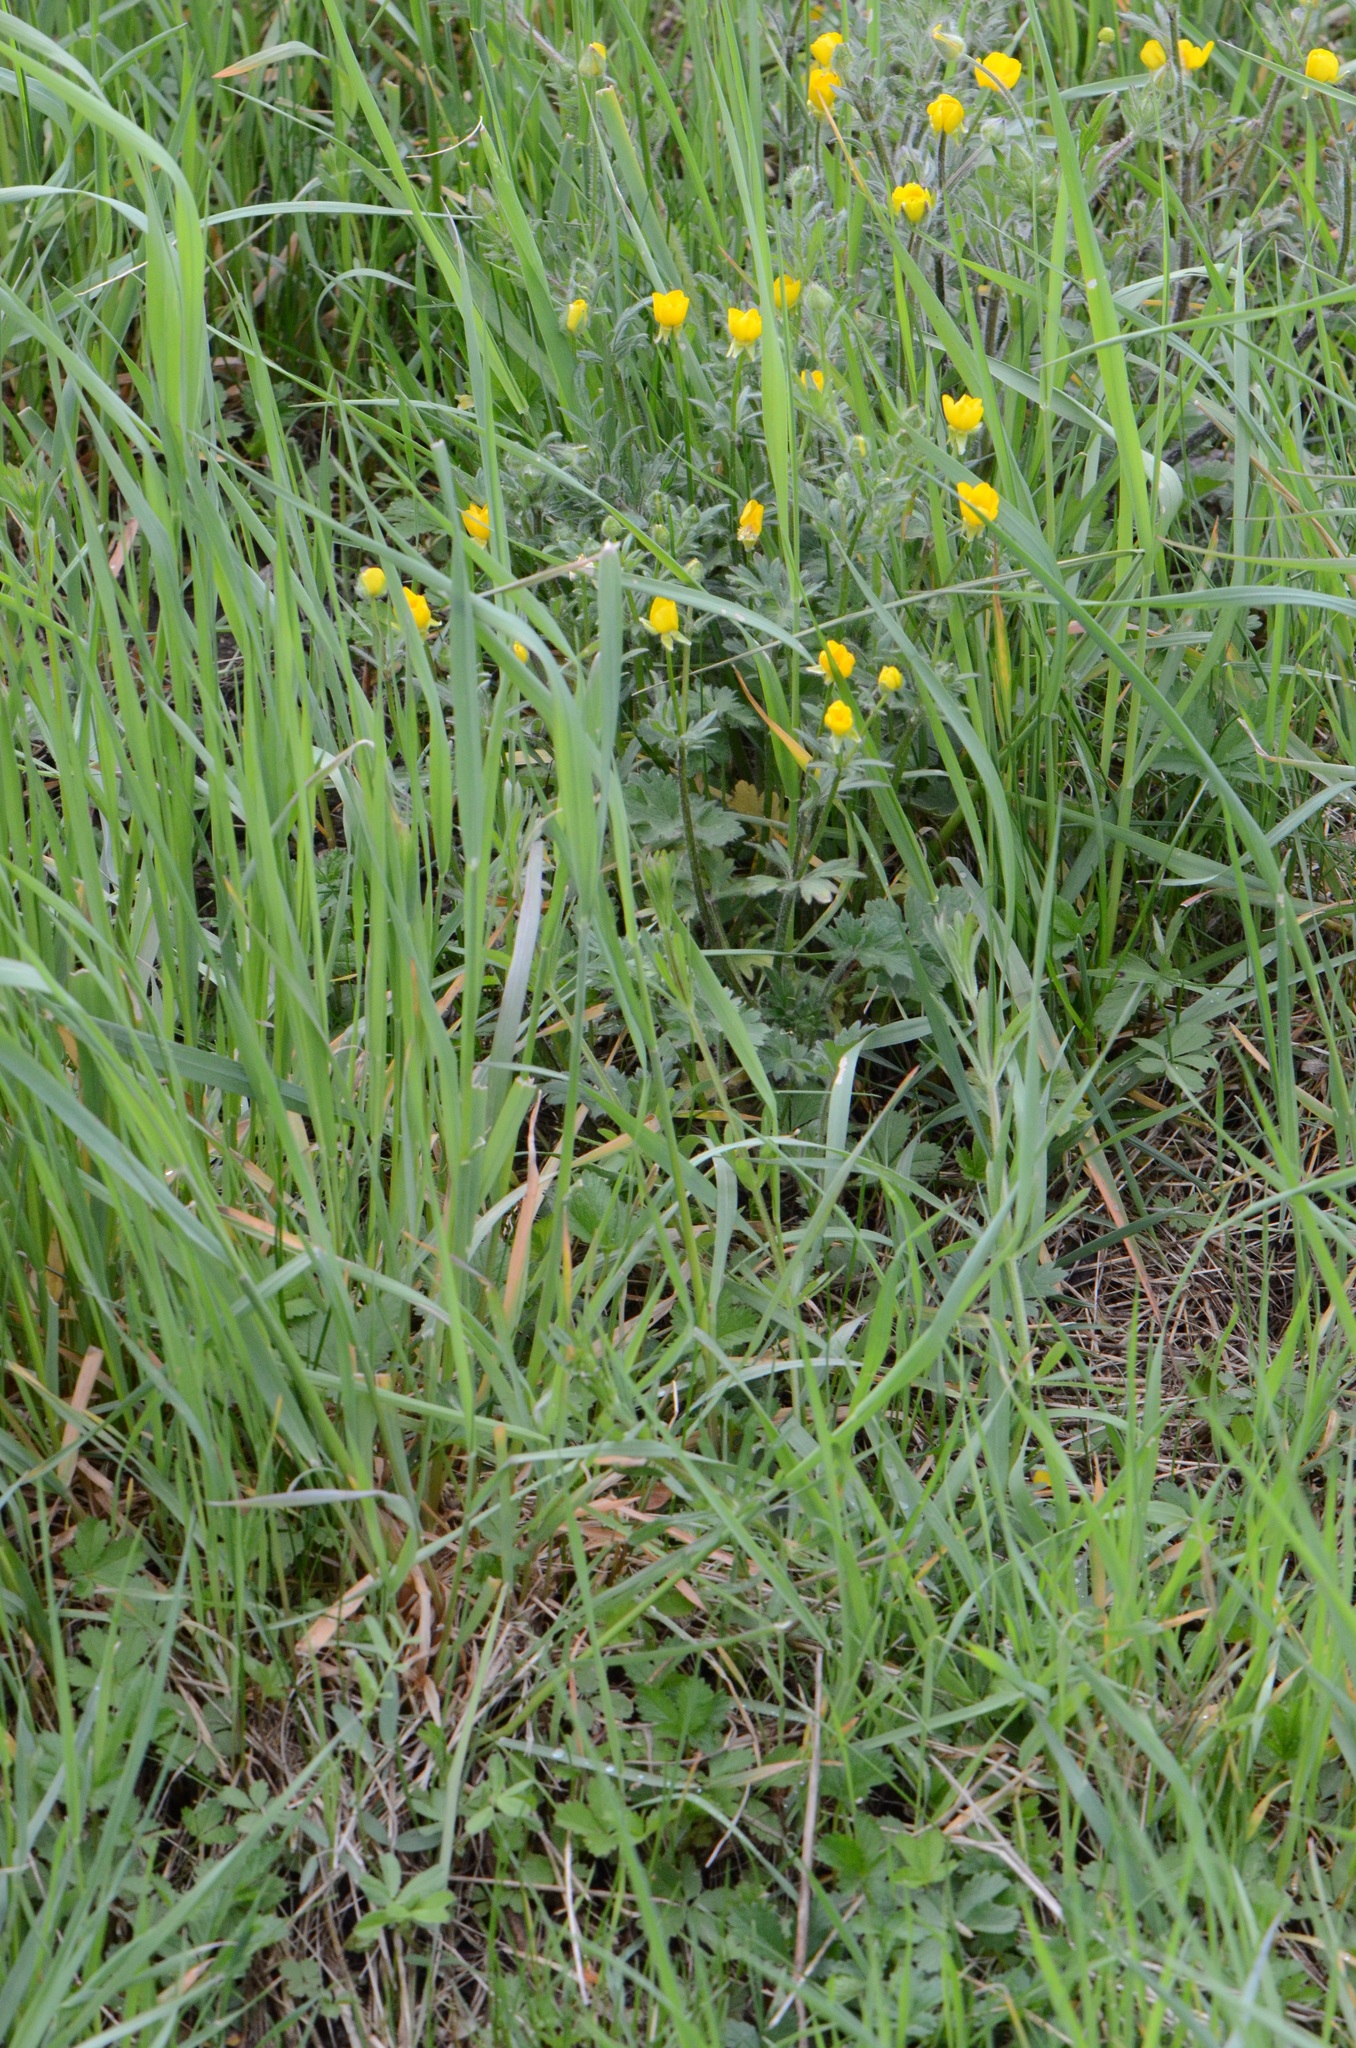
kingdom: Plantae
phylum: Tracheophyta
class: Magnoliopsida
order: Ranunculales
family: Ranunculaceae
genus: Ranunculus
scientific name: Ranunculus bulbosus
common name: Bulbous buttercup
